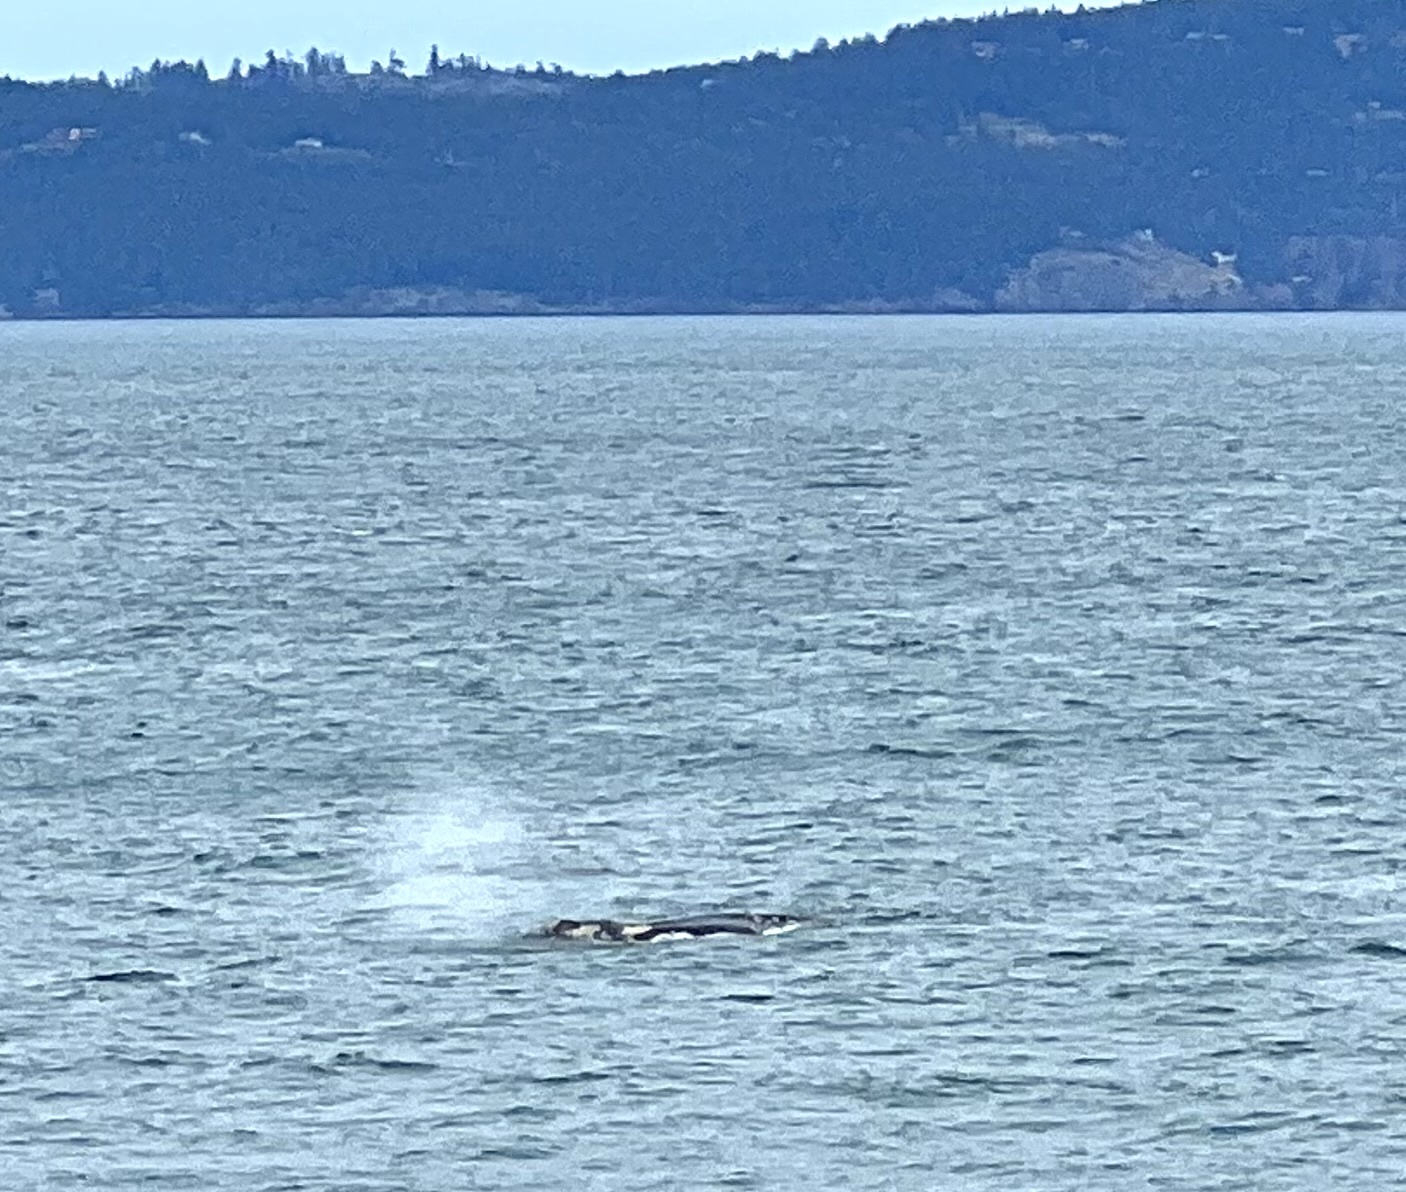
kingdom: Animalia
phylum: Arthropoda
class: Maxillopoda
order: Sessilia
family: Coronulidae
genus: Cryptolepas
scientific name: Cryptolepas rhachianecti
